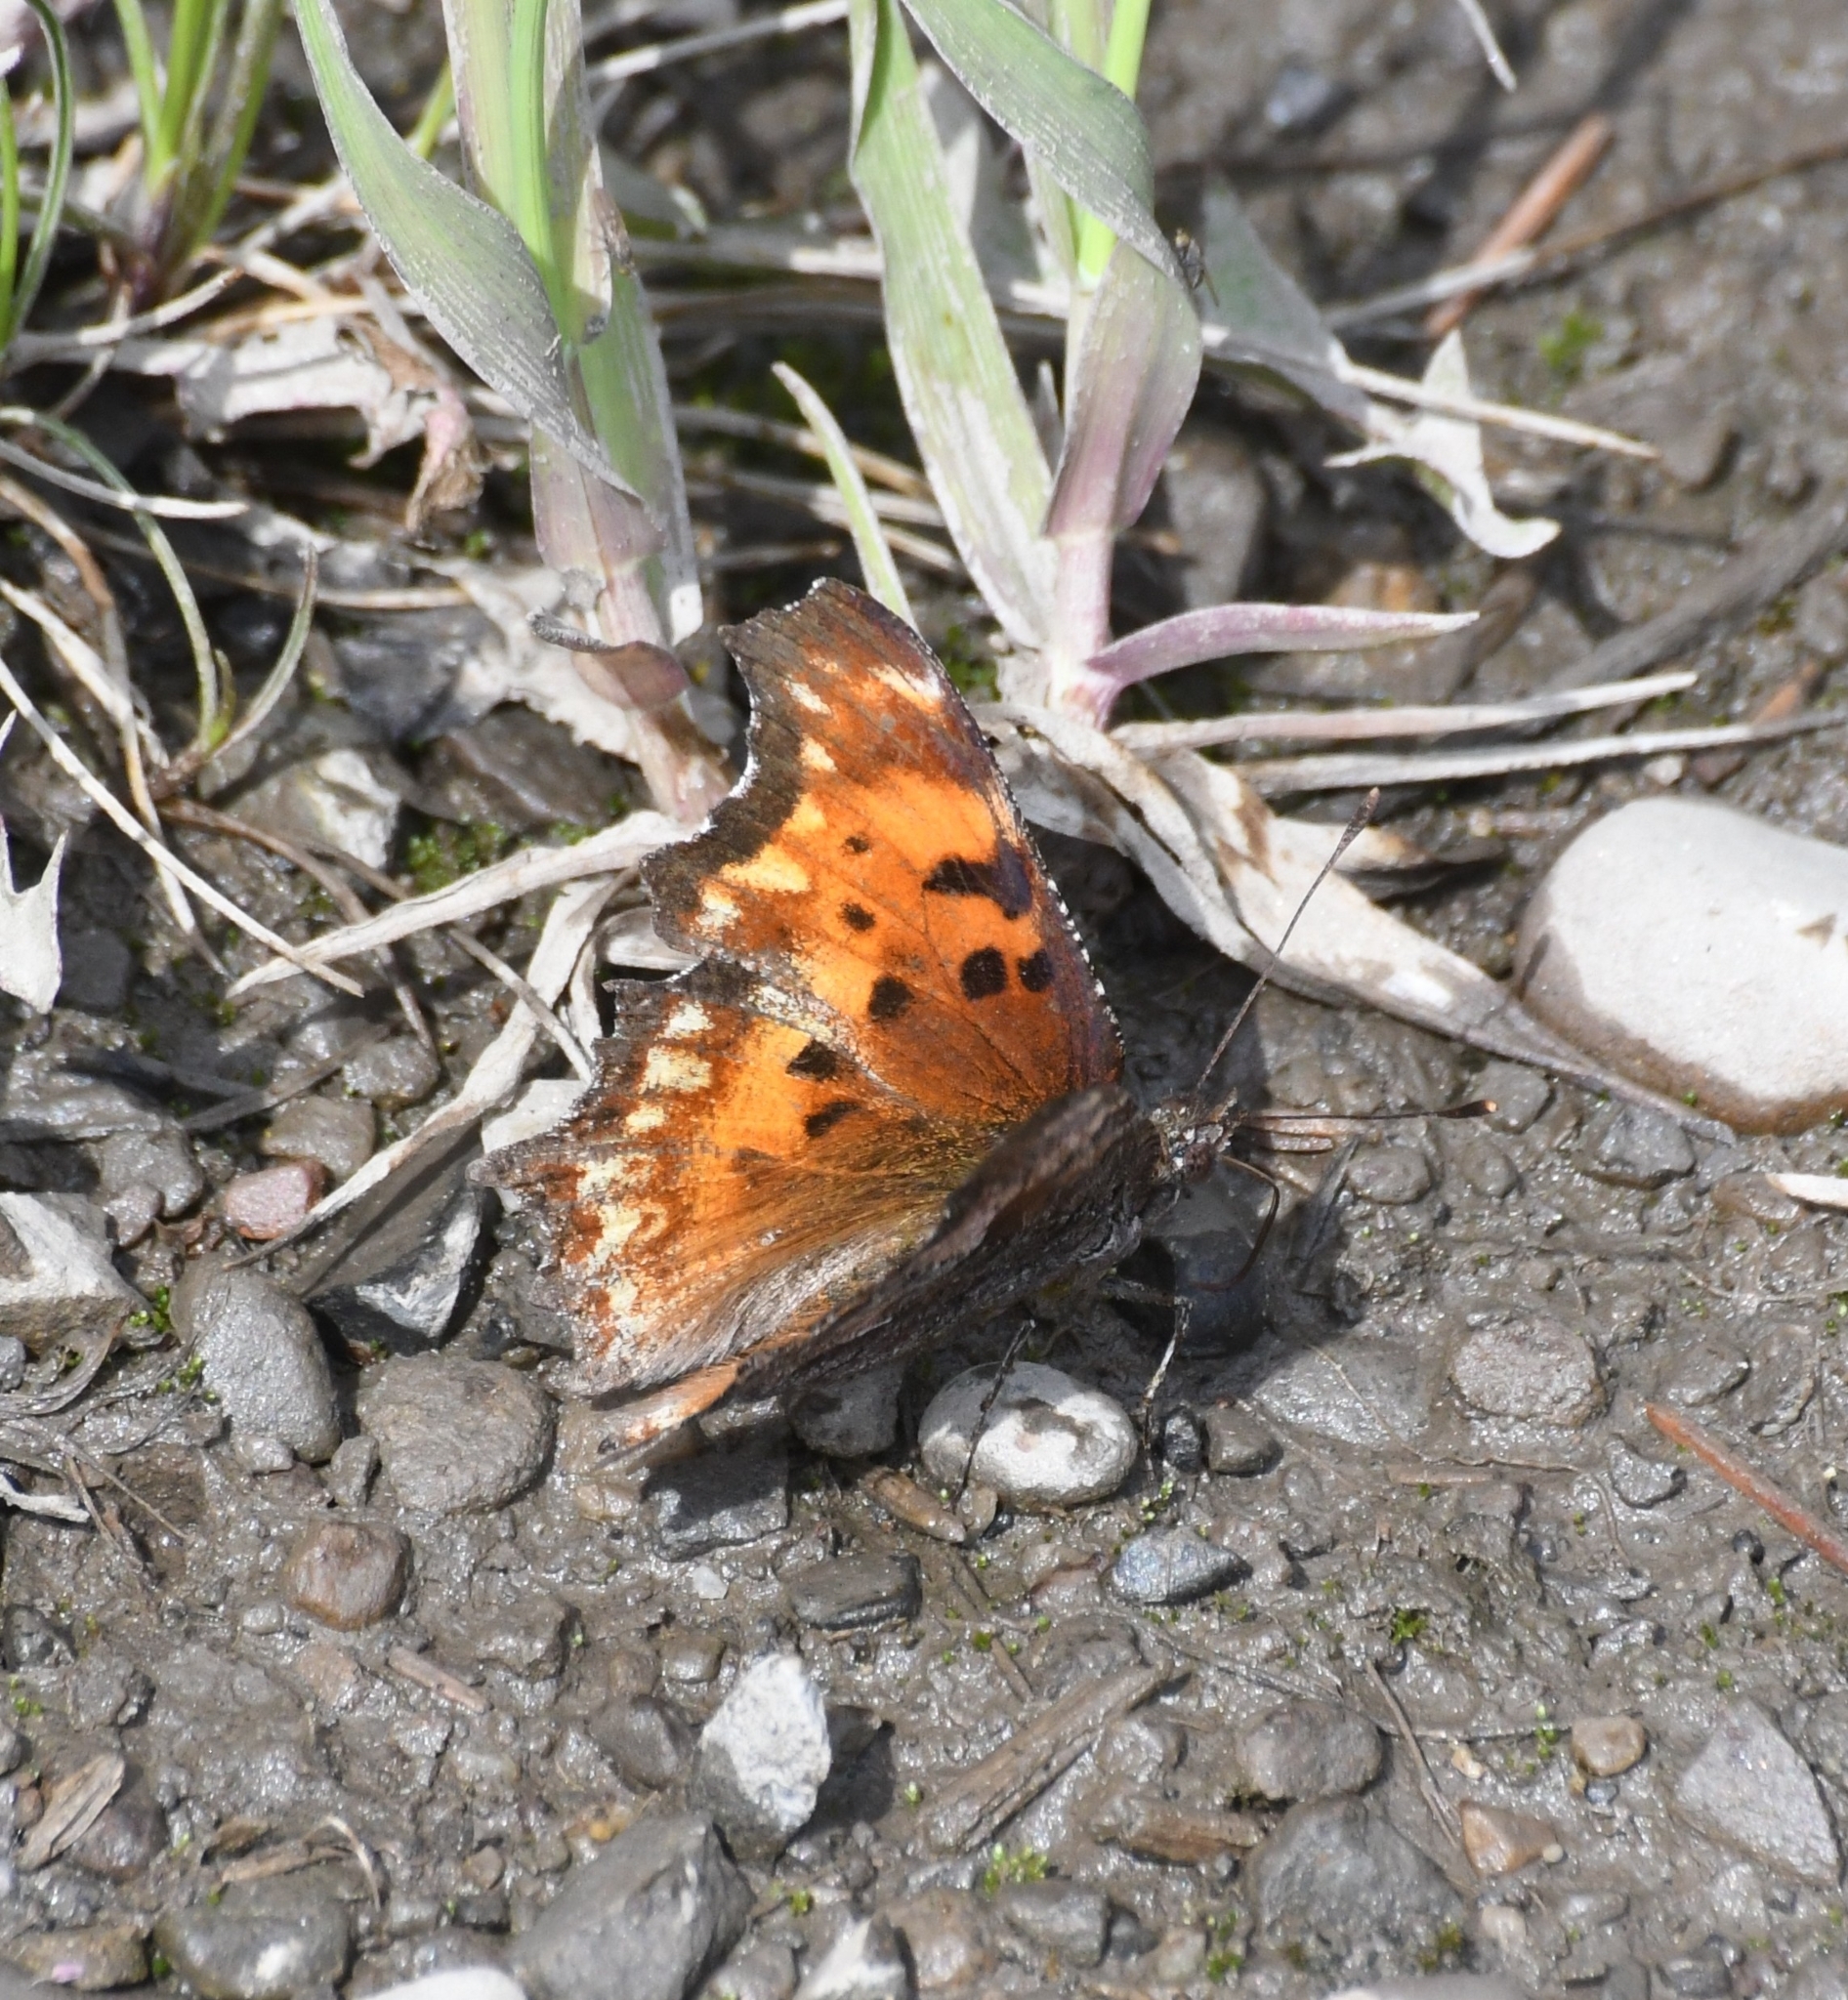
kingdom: Animalia
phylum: Arthropoda
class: Insecta
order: Lepidoptera
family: Nymphalidae
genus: Polygonia
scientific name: Polygonia gracilis
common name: Hoary comma
